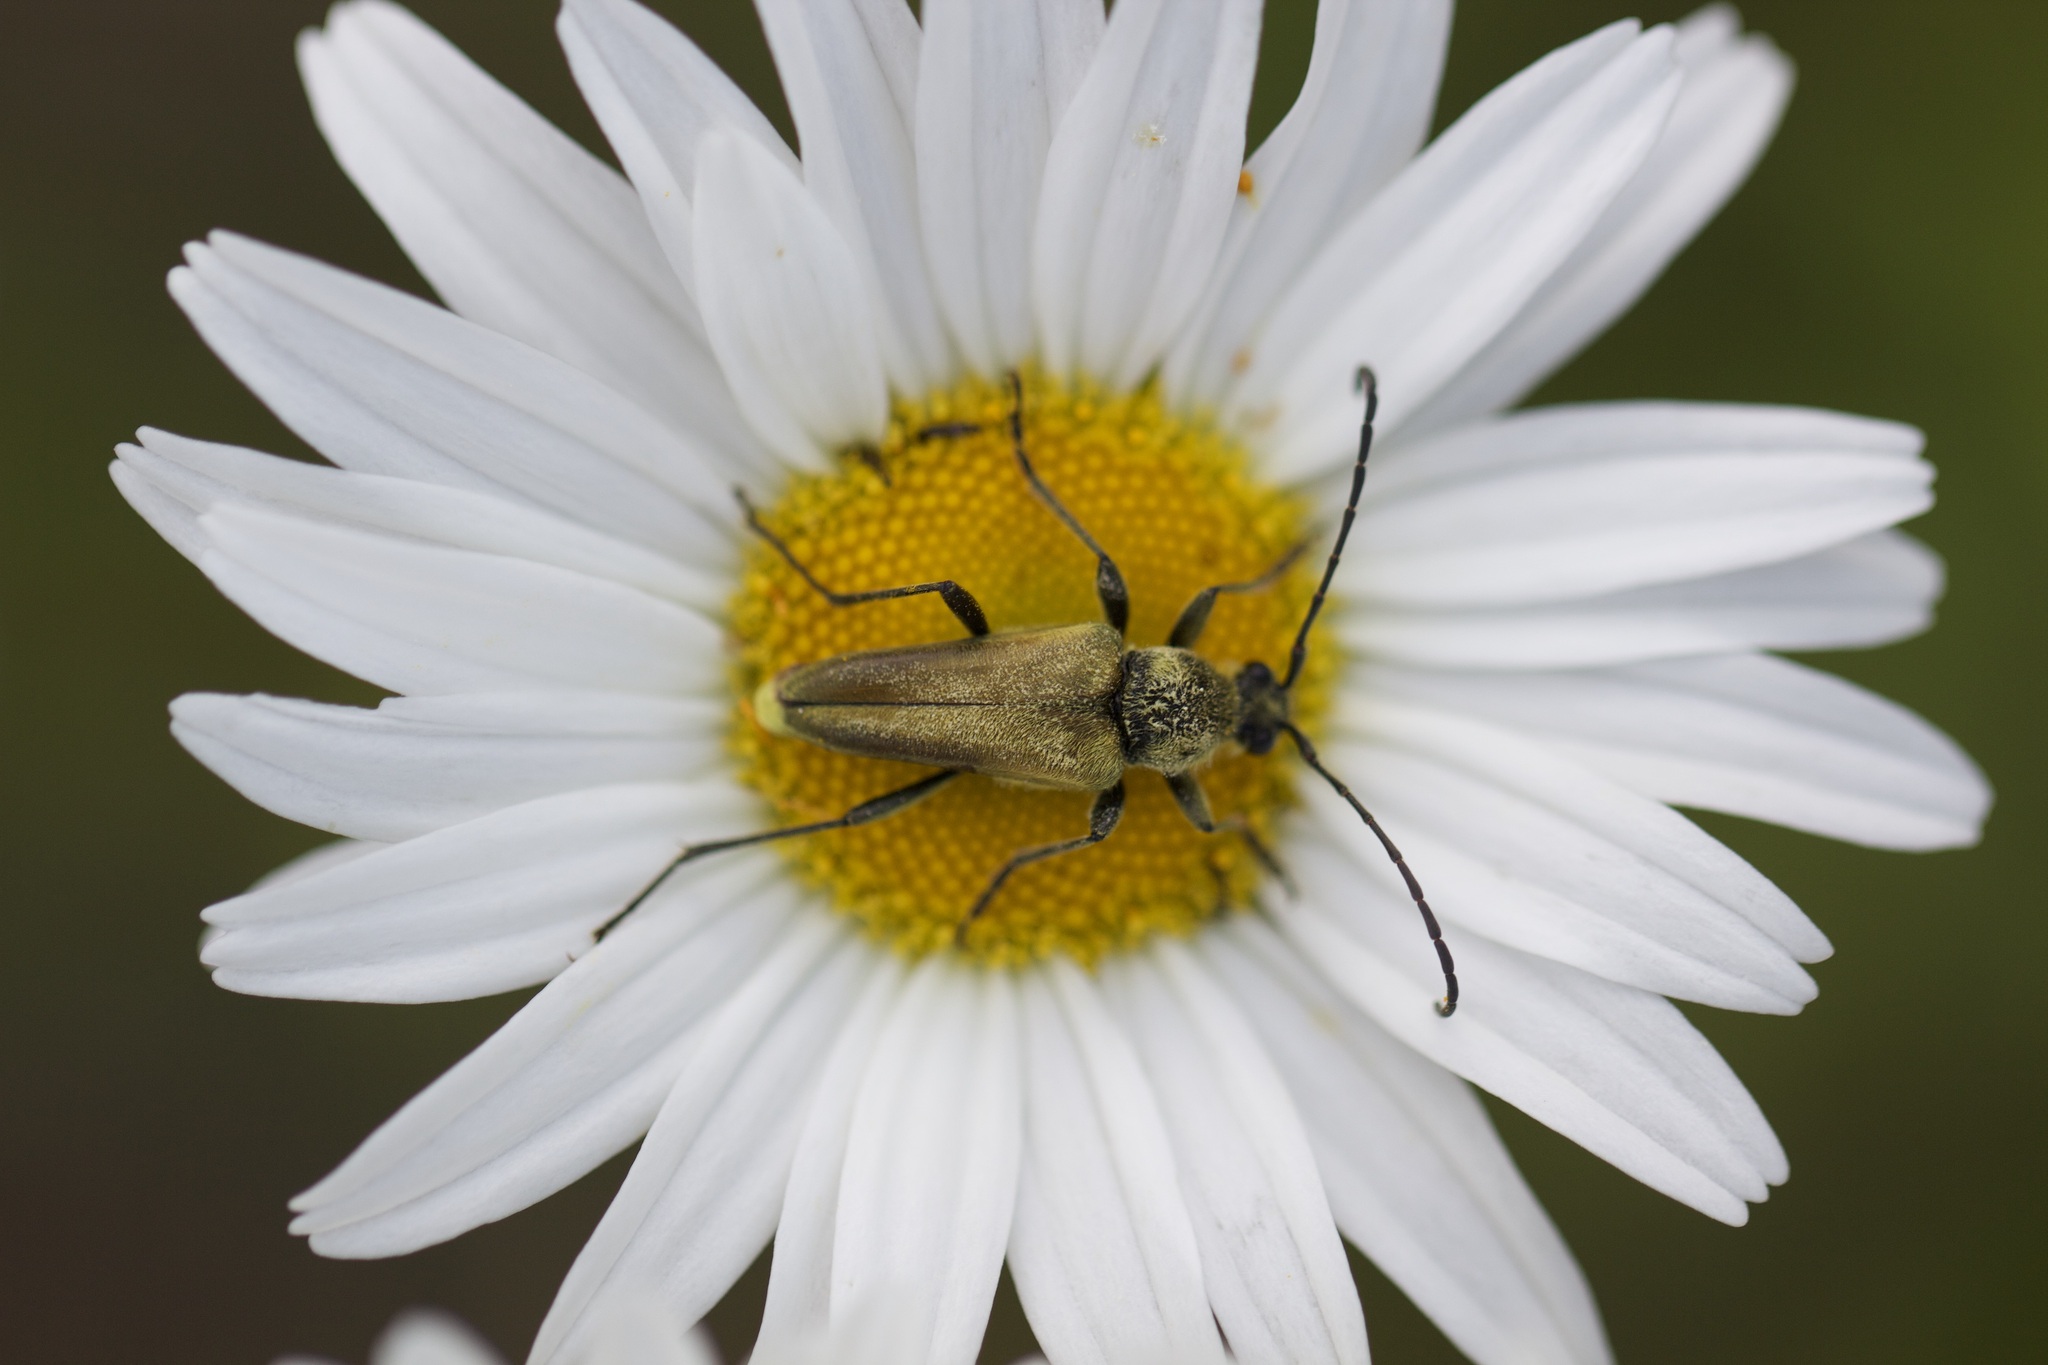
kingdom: Animalia
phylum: Arthropoda
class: Insecta
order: Coleoptera
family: Cerambycidae
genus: Cosmosalia
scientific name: Cosmosalia chrysocoma
